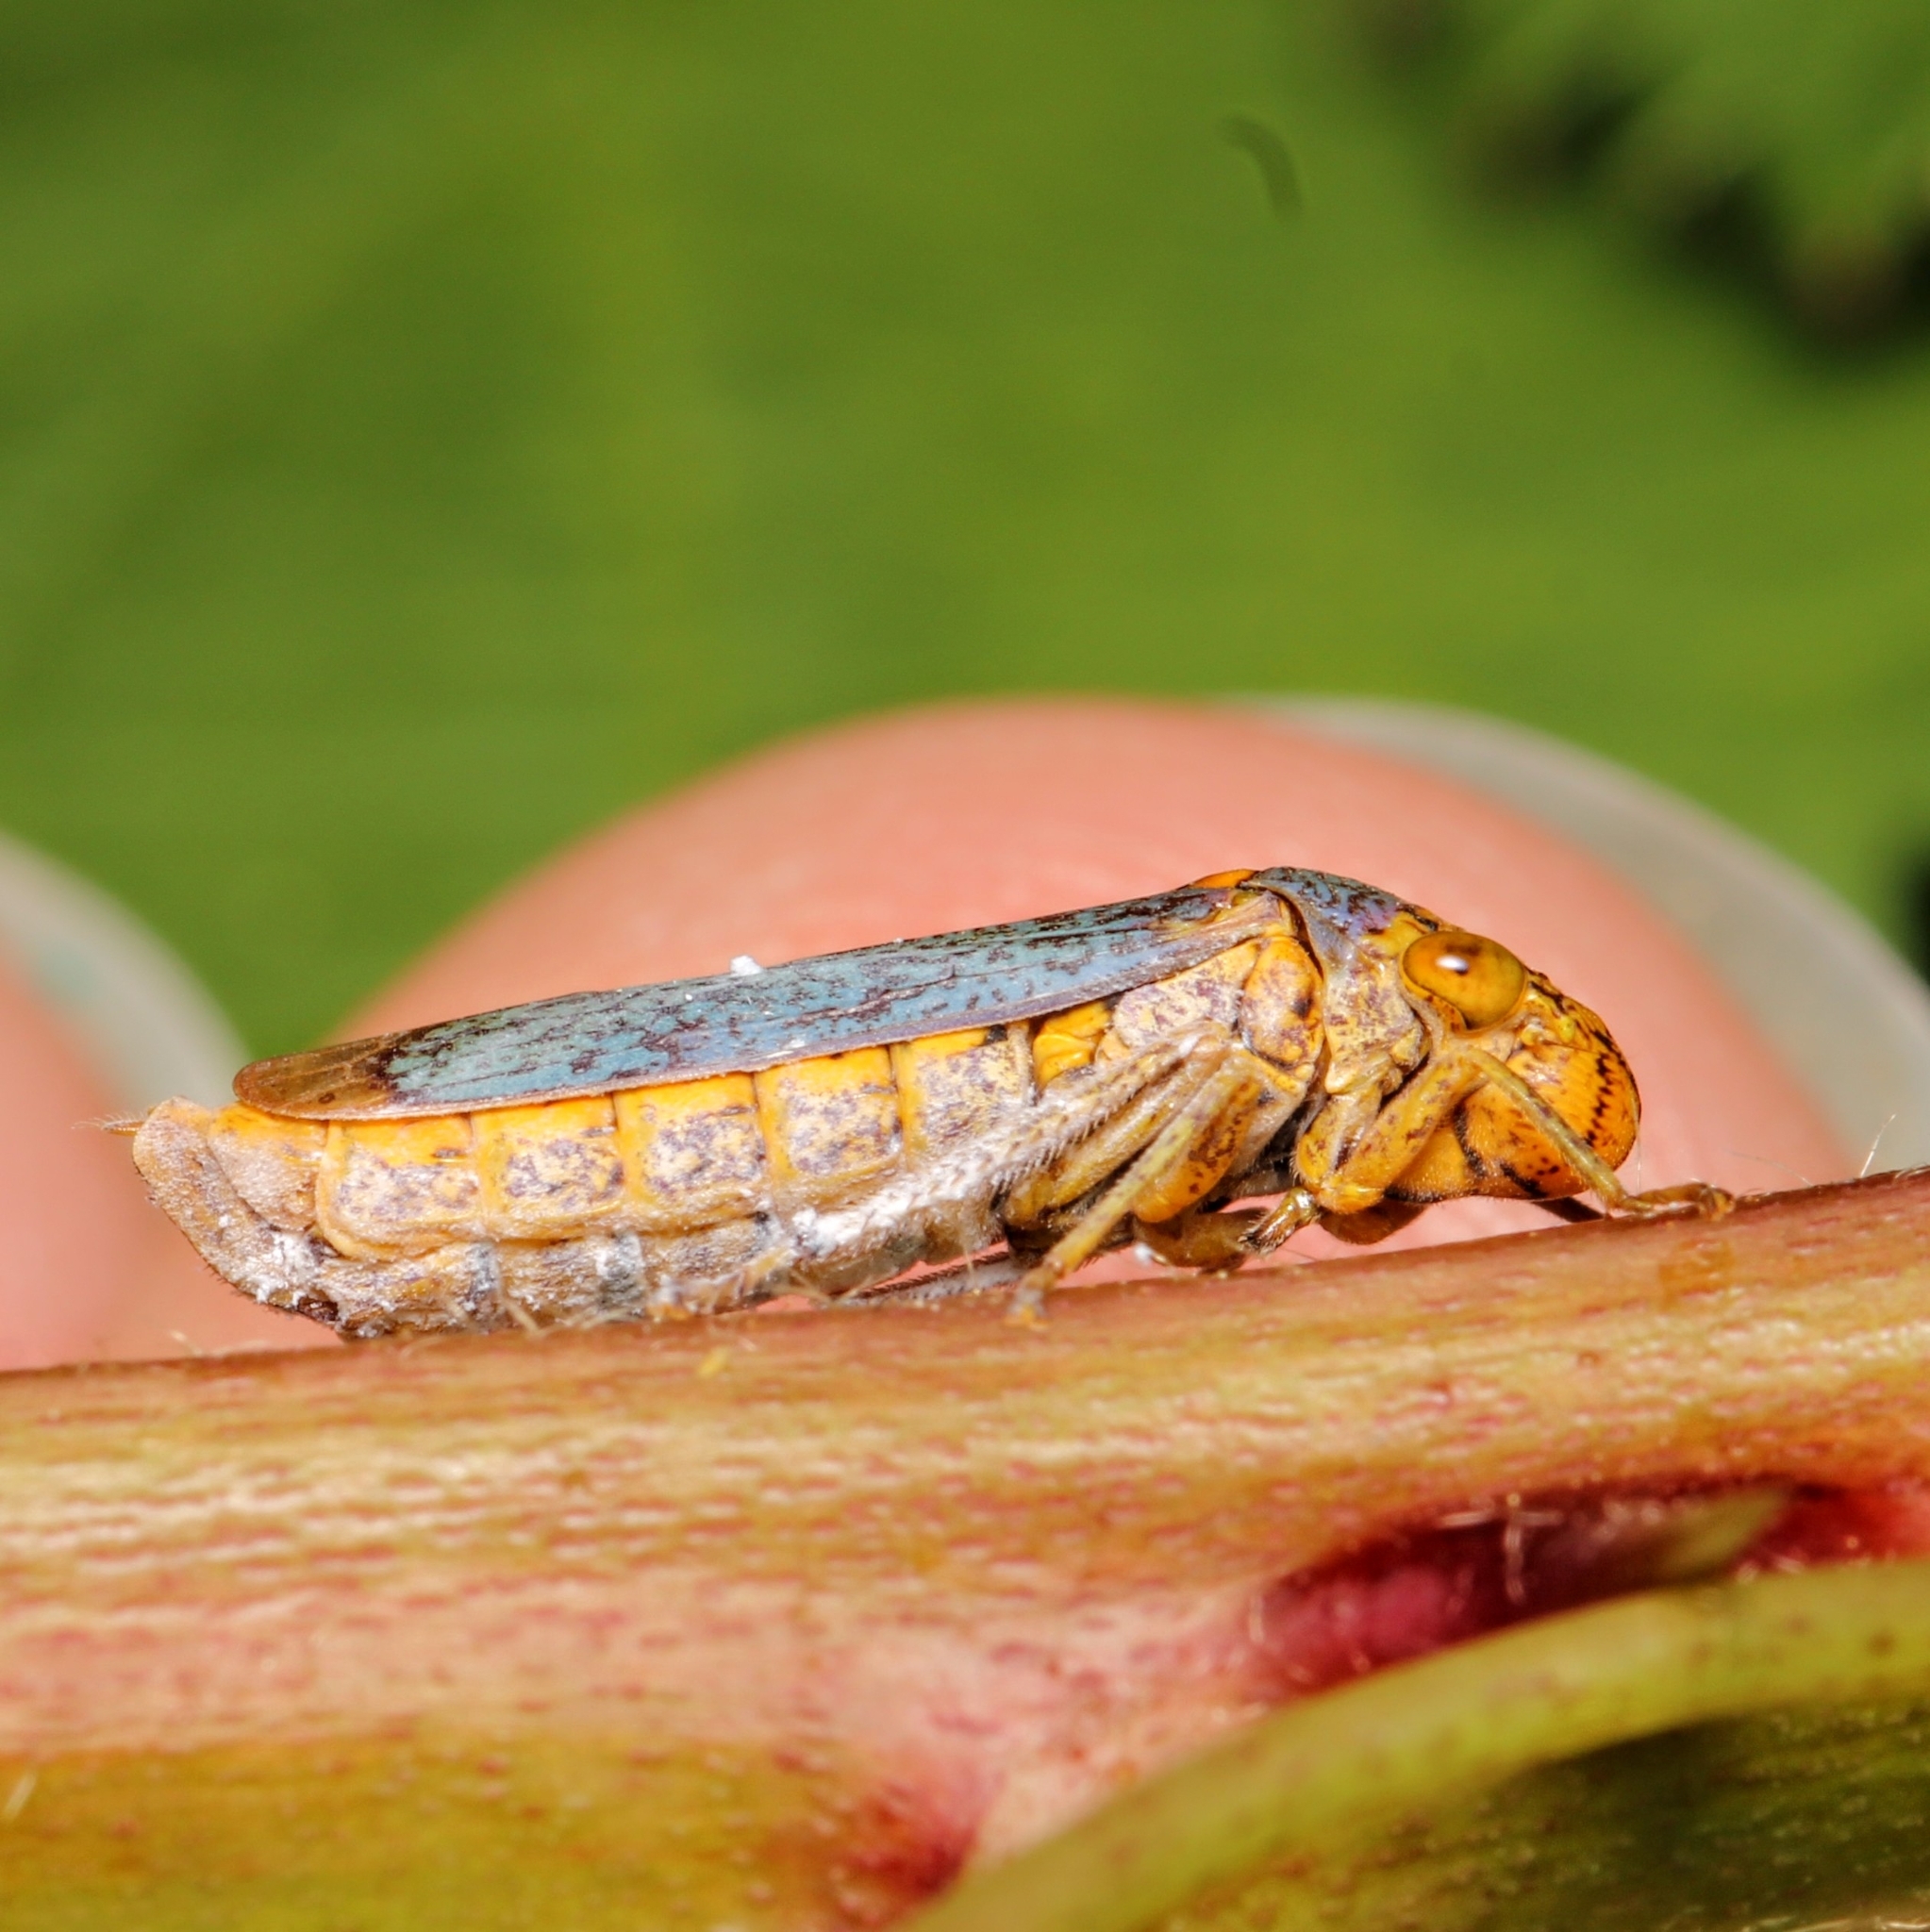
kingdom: Animalia
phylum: Arthropoda
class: Insecta
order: Hemiptera
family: Cicadellidae
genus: Oncometopia
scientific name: Oncometopia orbona
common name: Broad-headed sharpshooter
